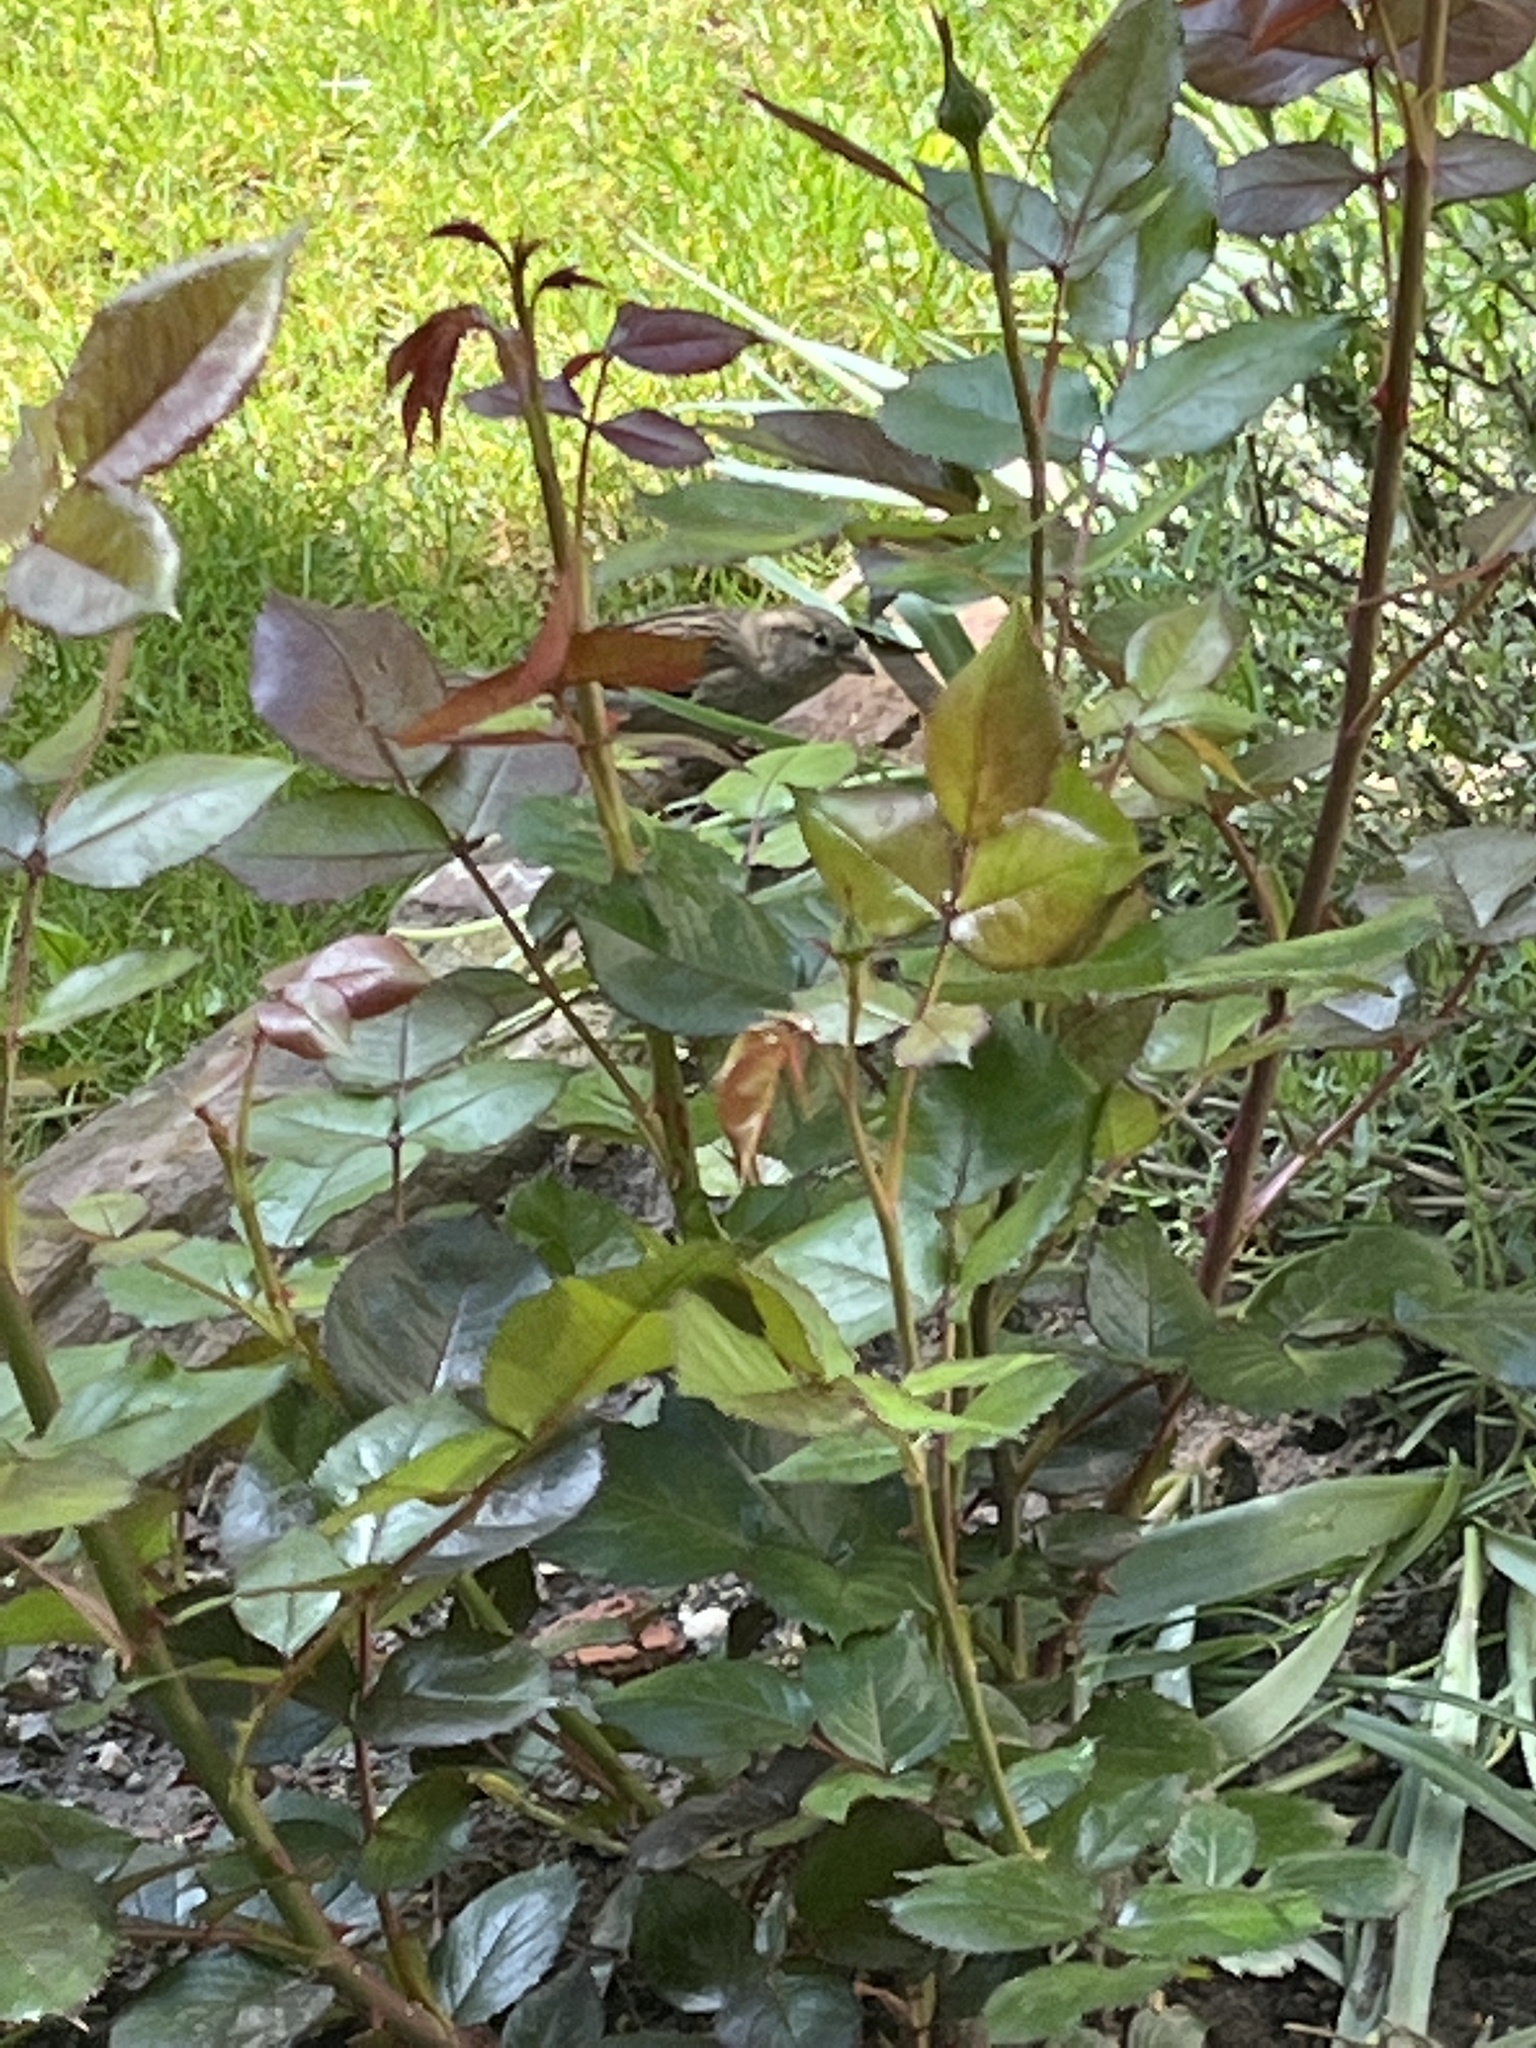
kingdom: Plantae
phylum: Tracheophyta
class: Magnoliopsida
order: Rosales
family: Rosaceae
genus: Rosa
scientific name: Rosa
